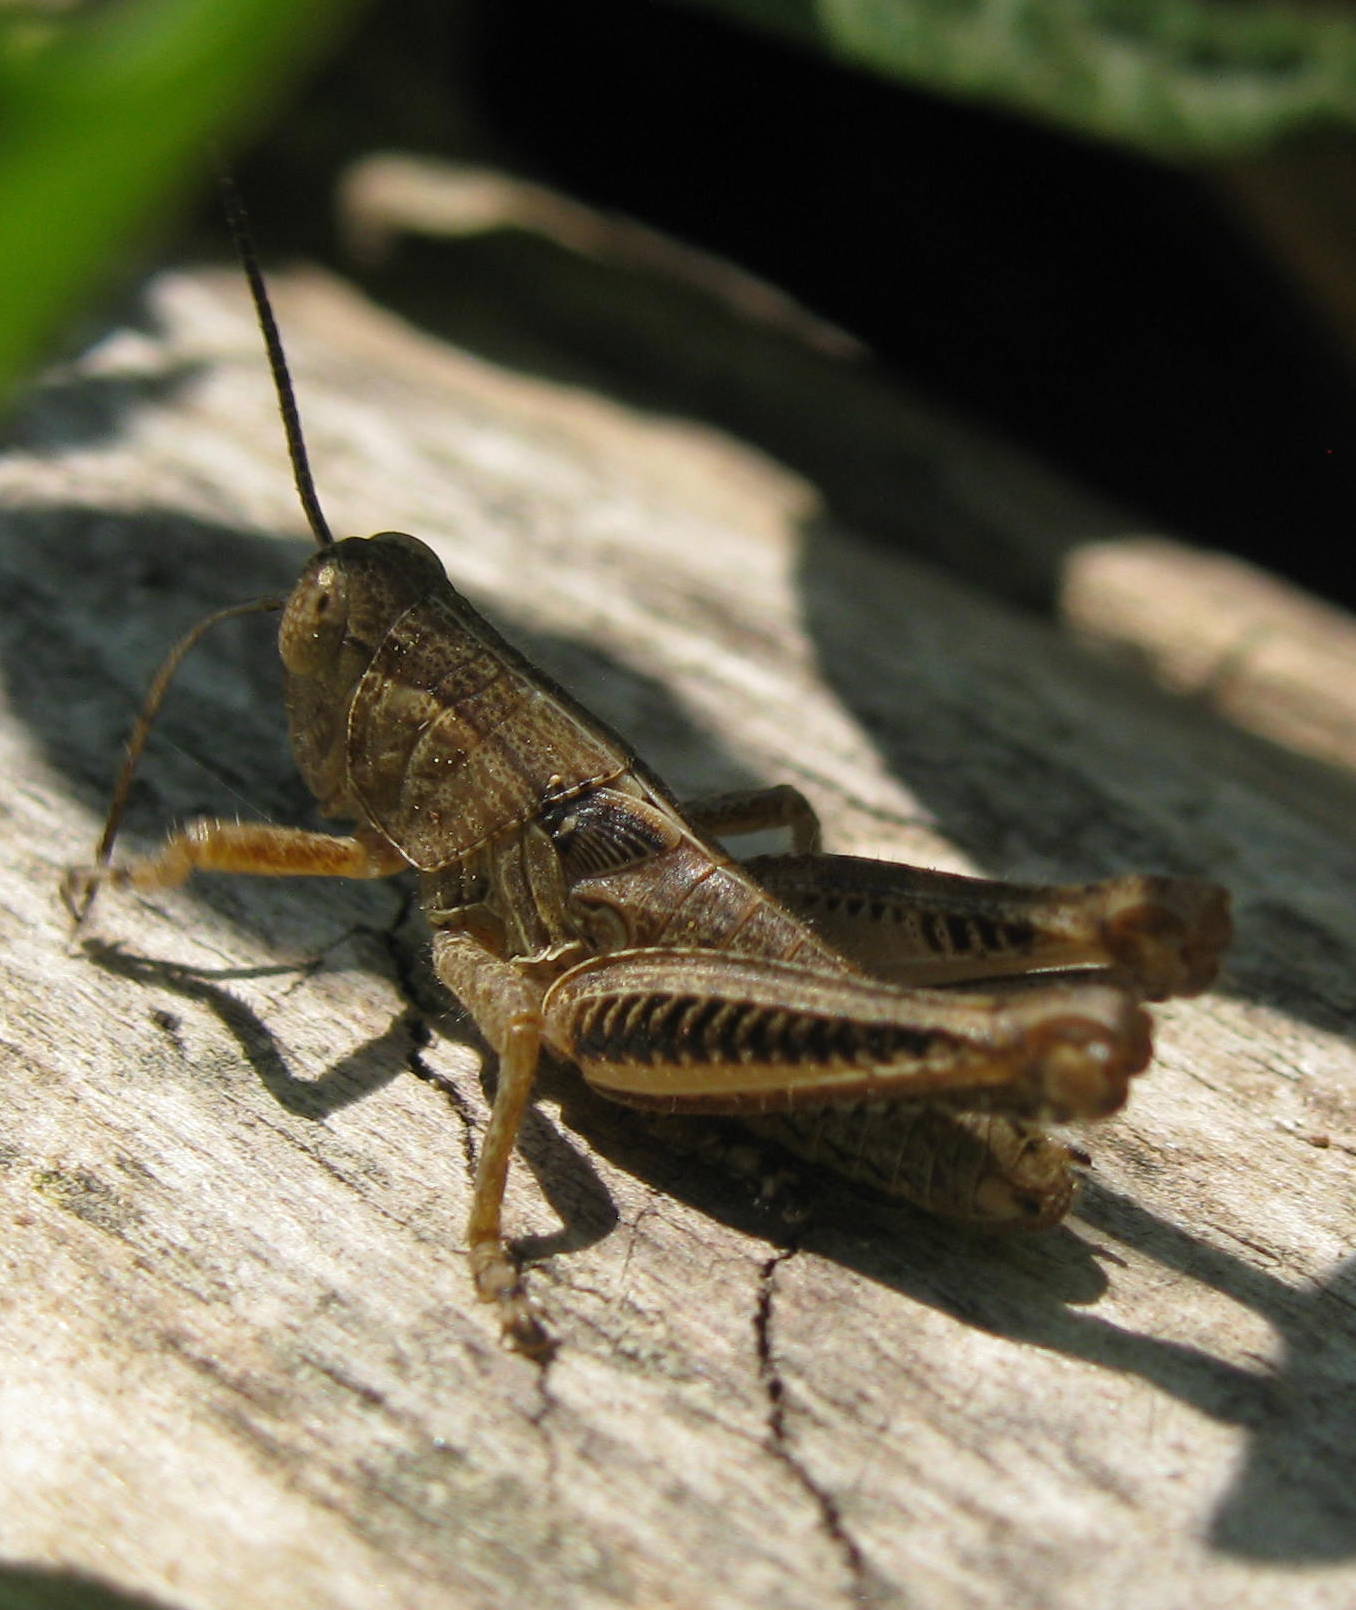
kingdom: Animalia
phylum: Arthropoda
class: Insecta
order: Orthoptera
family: Acrididae
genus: Melanoplus
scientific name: Melanoplus differentialis
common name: Differential grasshopper
